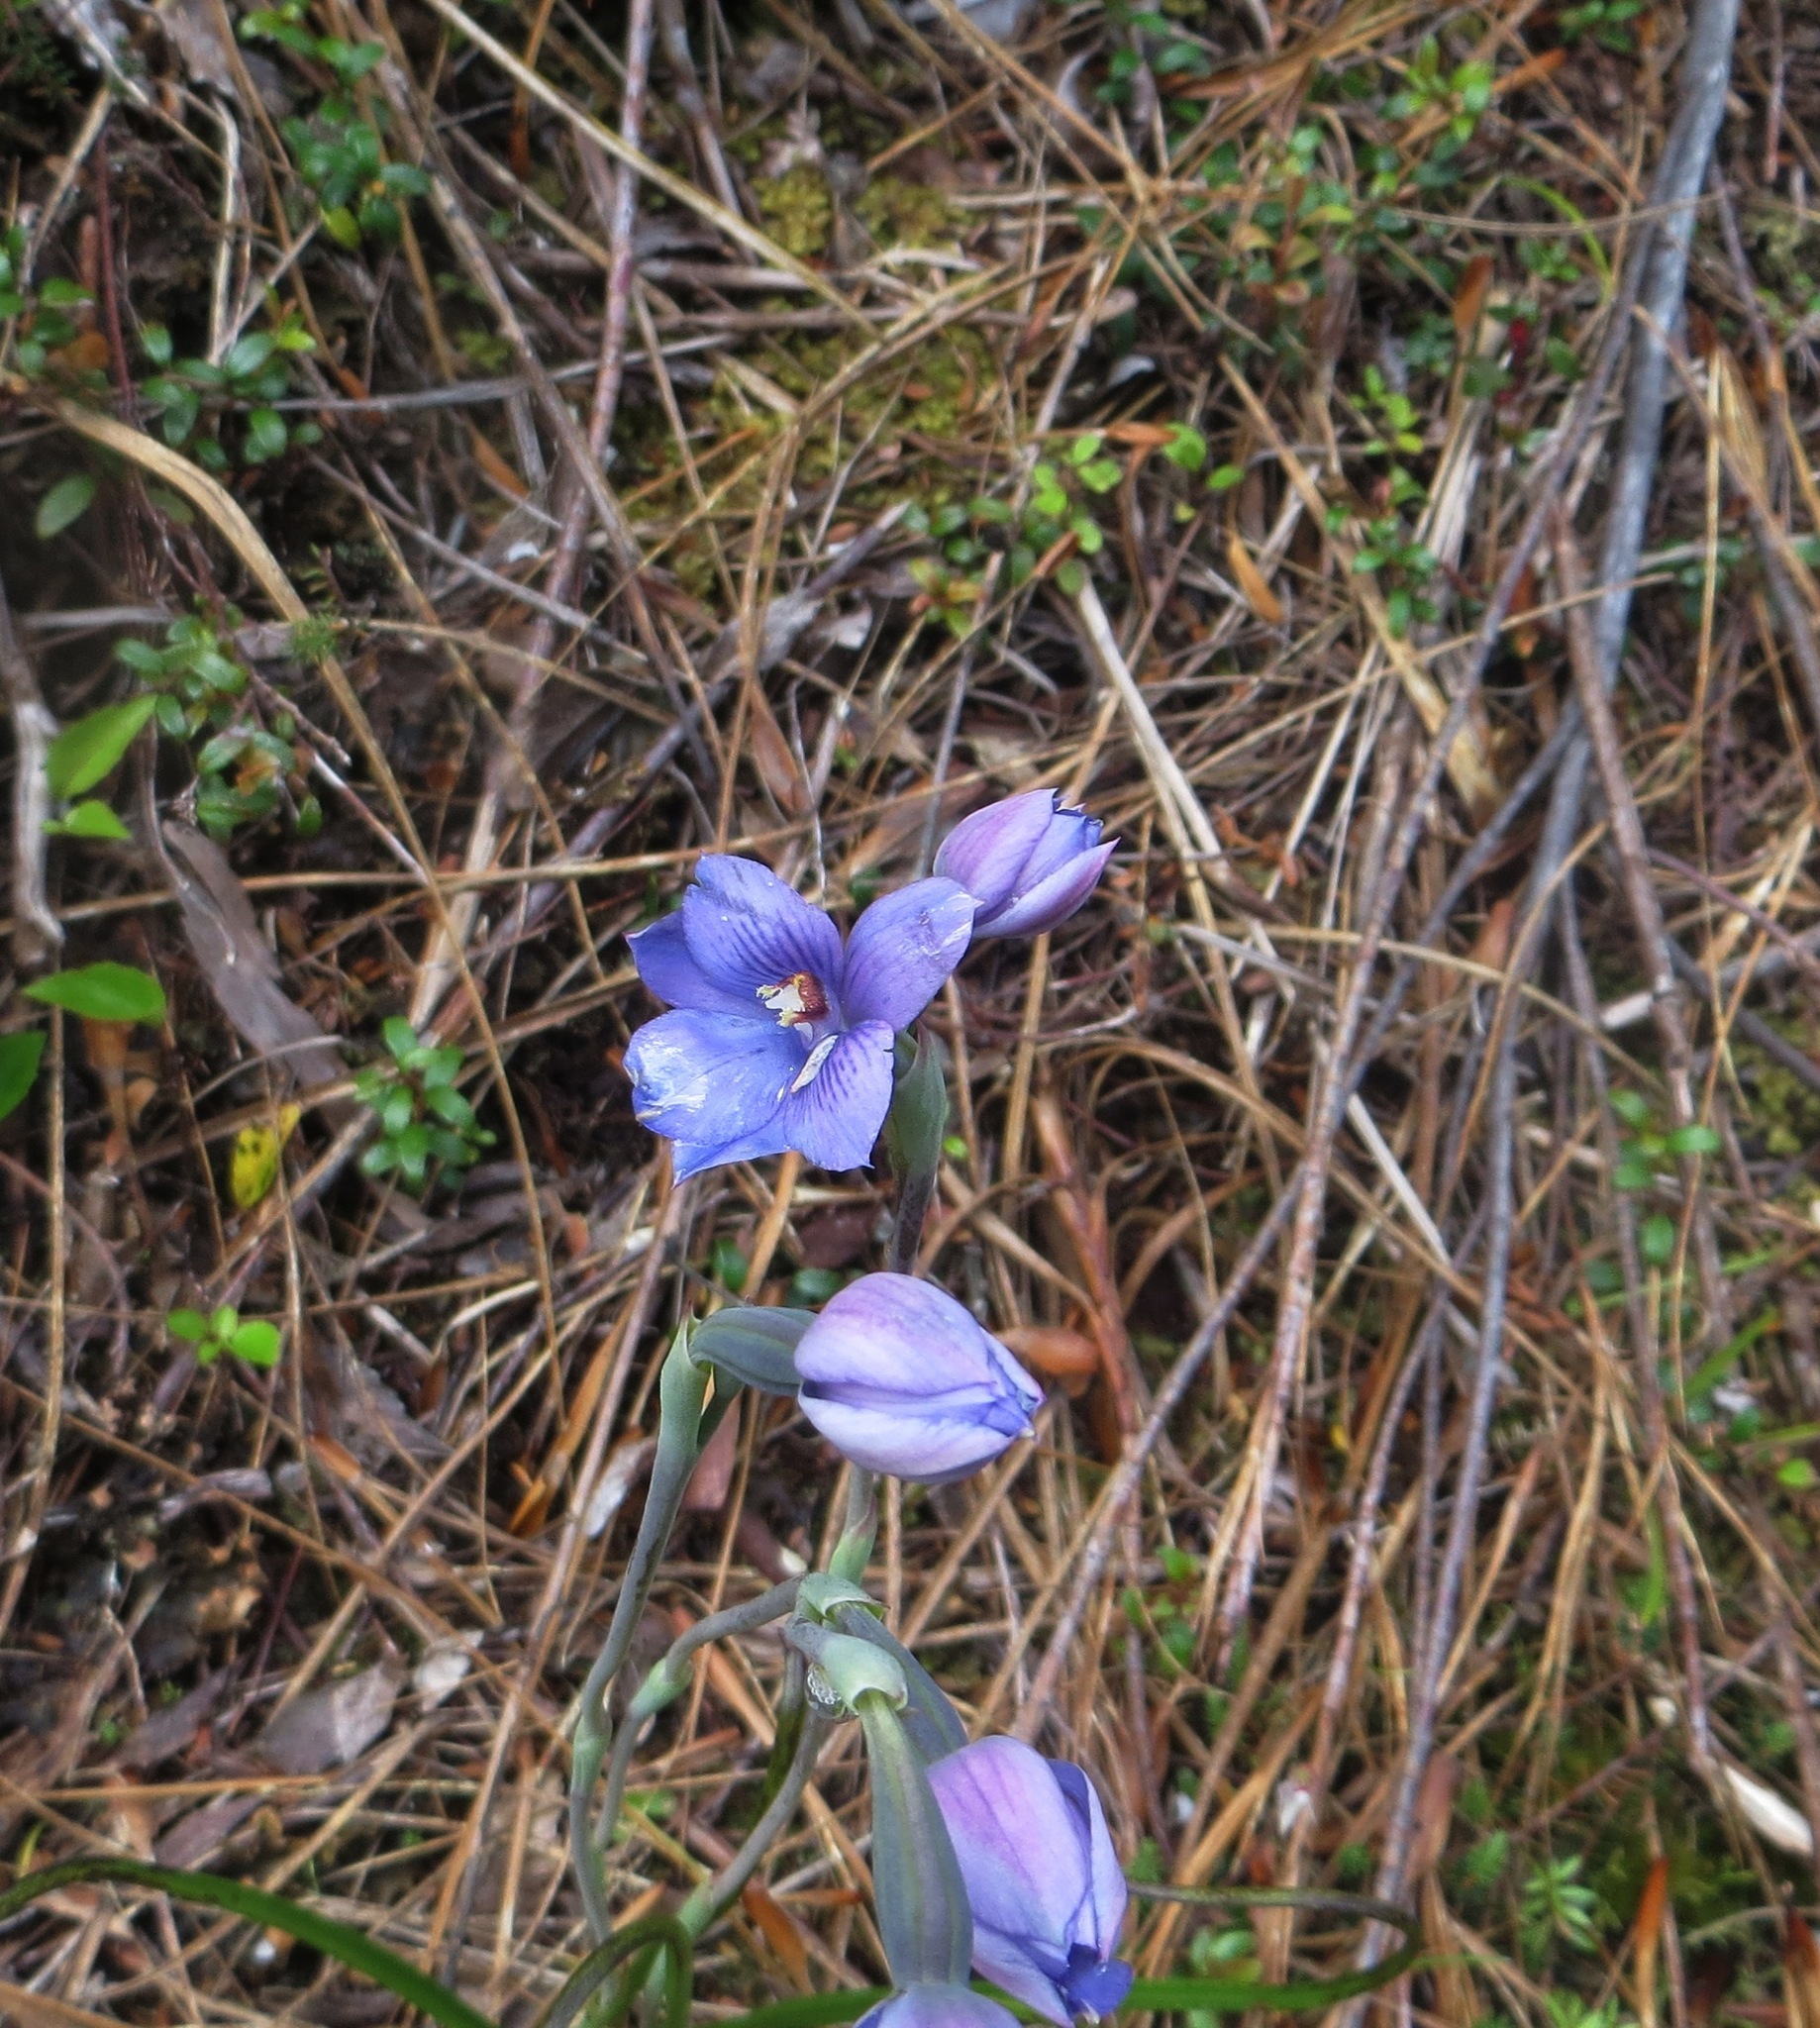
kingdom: Plantae
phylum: Tracheophyta
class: Liliopsida
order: Asparagales
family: Orchidaceae
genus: Thelymitra
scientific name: Thelymitra pulchella
